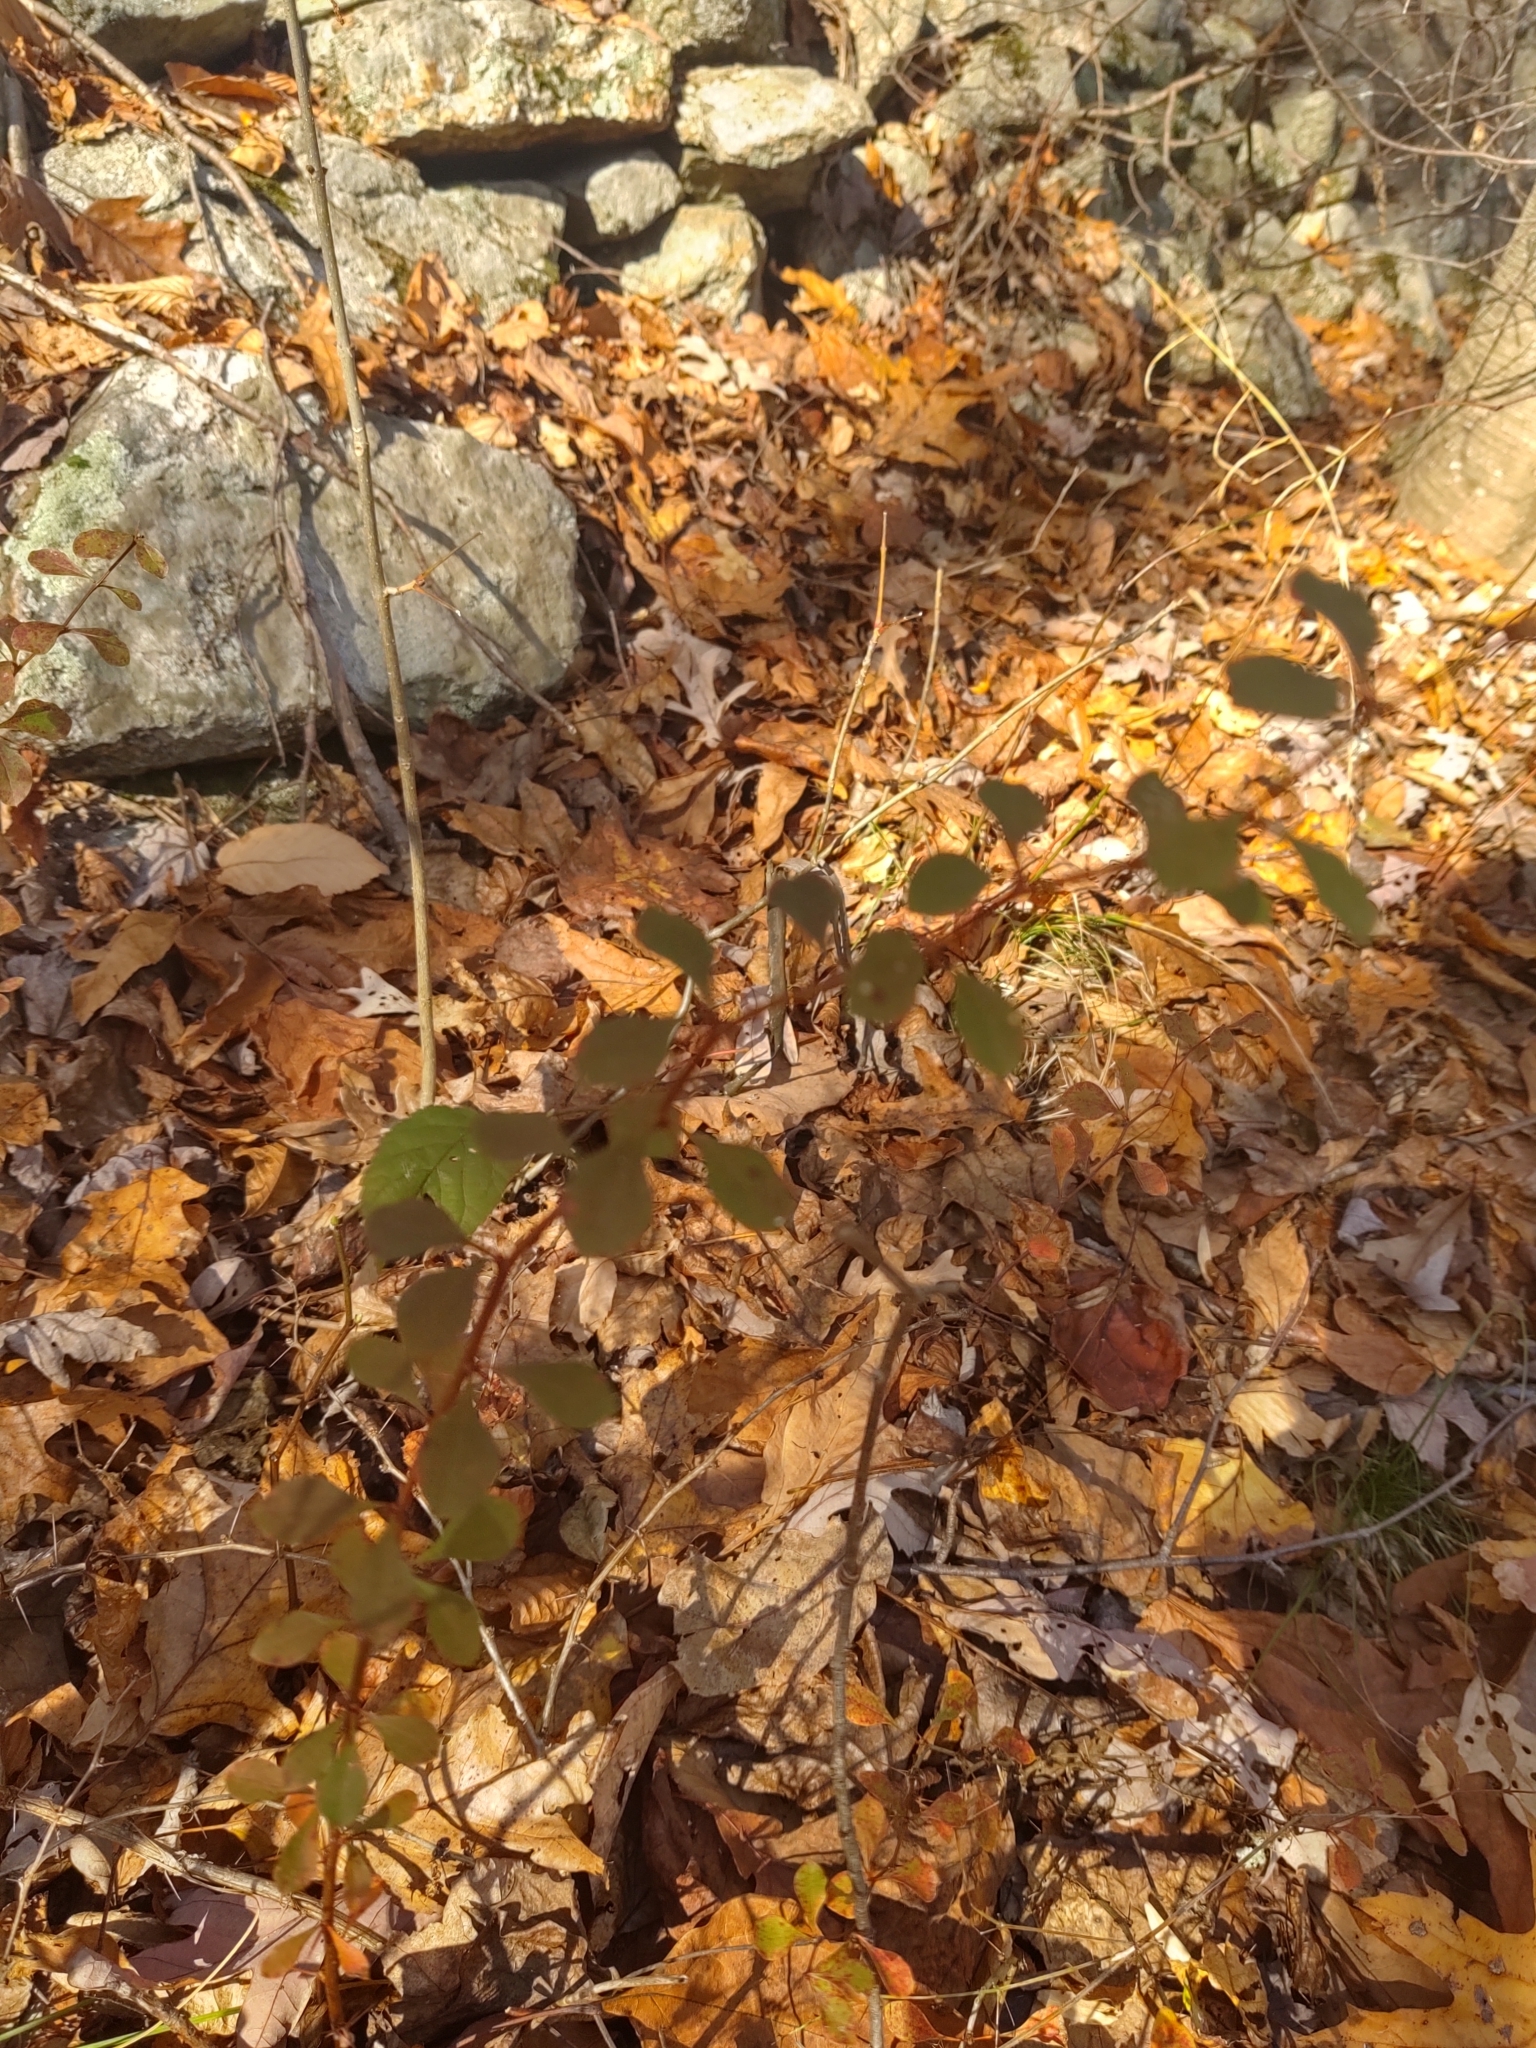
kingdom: Plantae
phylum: Tracheophyta
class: Magnoliopsida
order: Ranunculales
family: Berberidaceae
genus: Berberis
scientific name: Berberis thunbergii
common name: Japanese barberry
